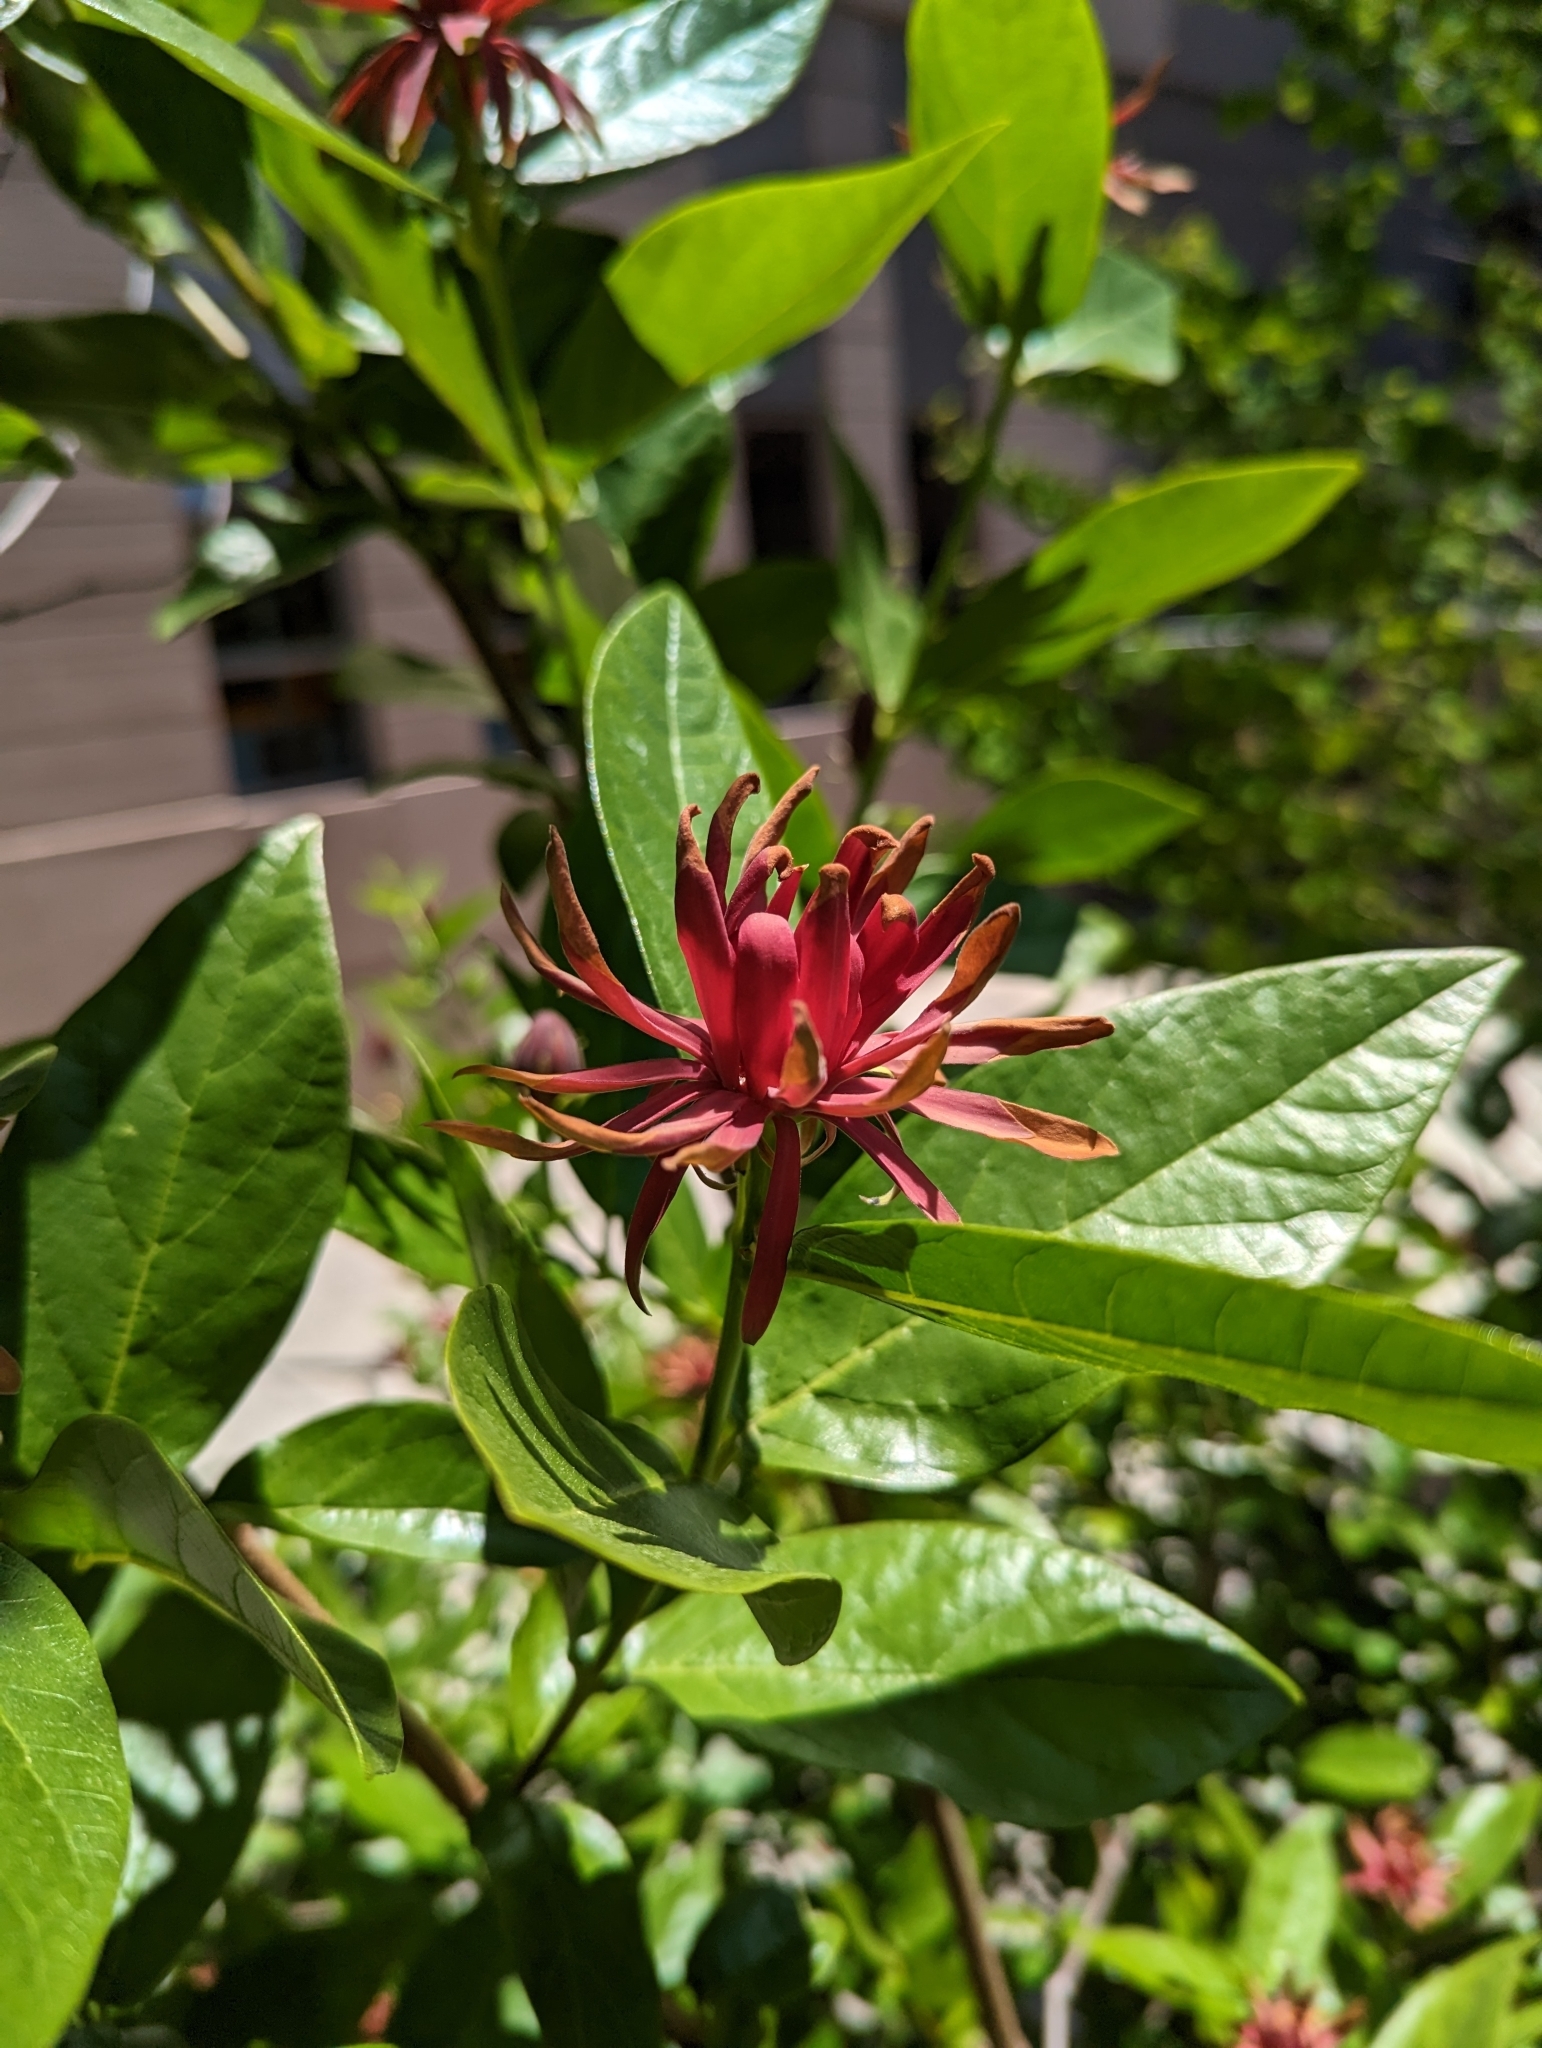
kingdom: Plantae
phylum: Tracheophyta
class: Magnoliopsida
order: Laurales
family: Calycanthaceae
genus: Calycanthus
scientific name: Calycanthus occidentalis
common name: California spicebush
